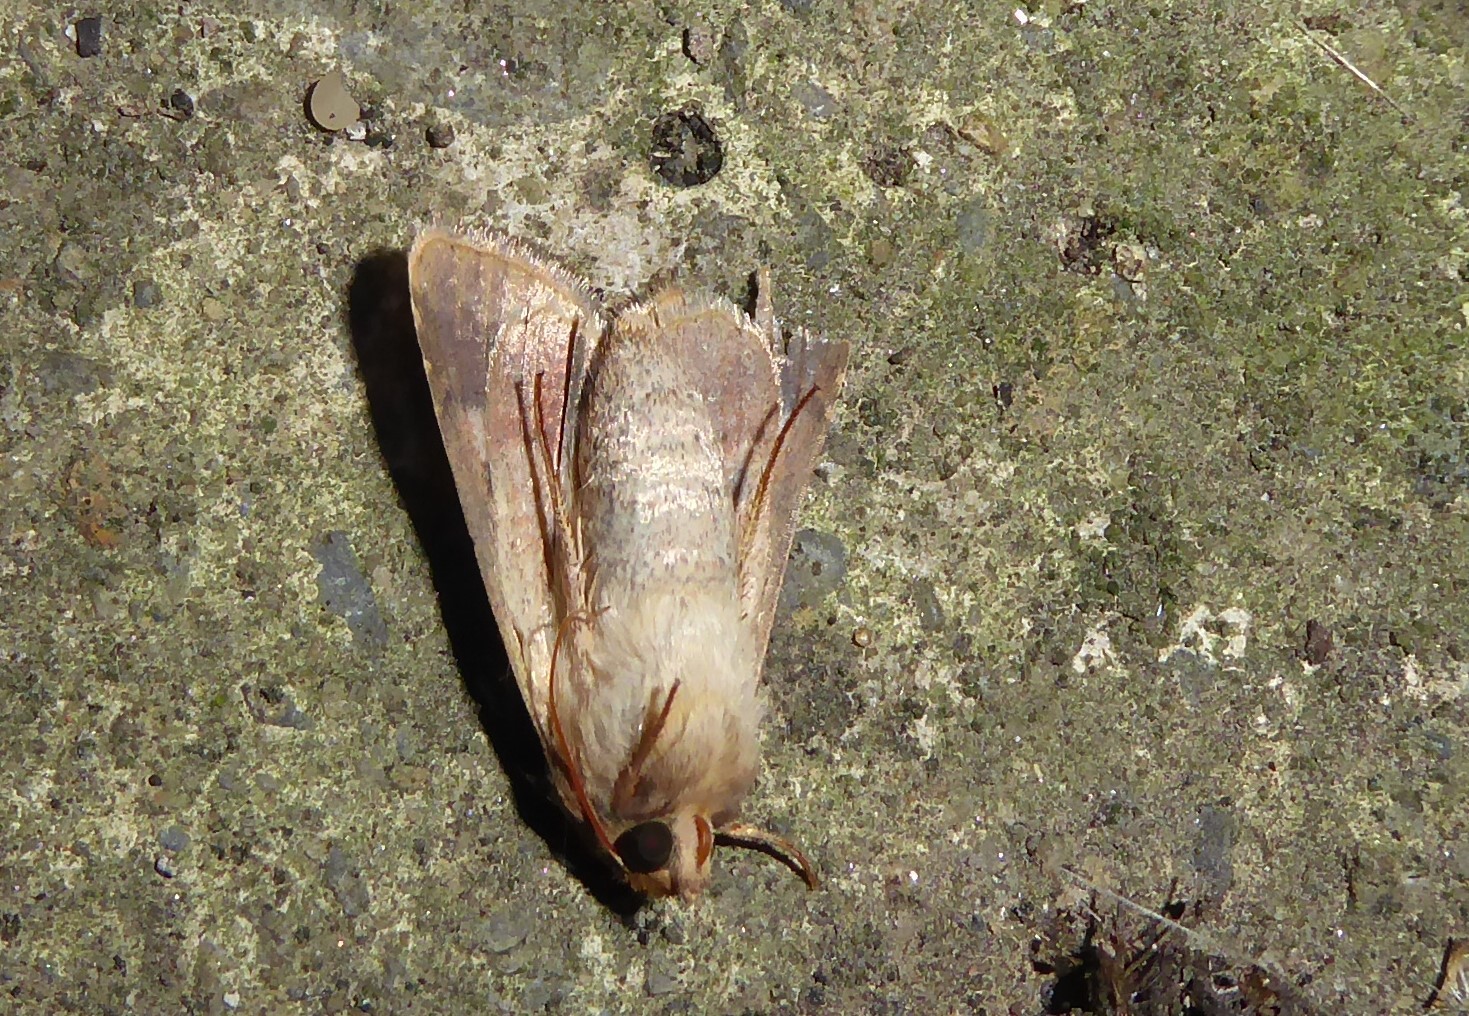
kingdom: Animalia
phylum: Arthropoda
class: Insecta
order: Lepidoptera
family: Noctuidae
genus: Helicoverpa
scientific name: Helicoverpa armigera
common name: Cotton bollworm
